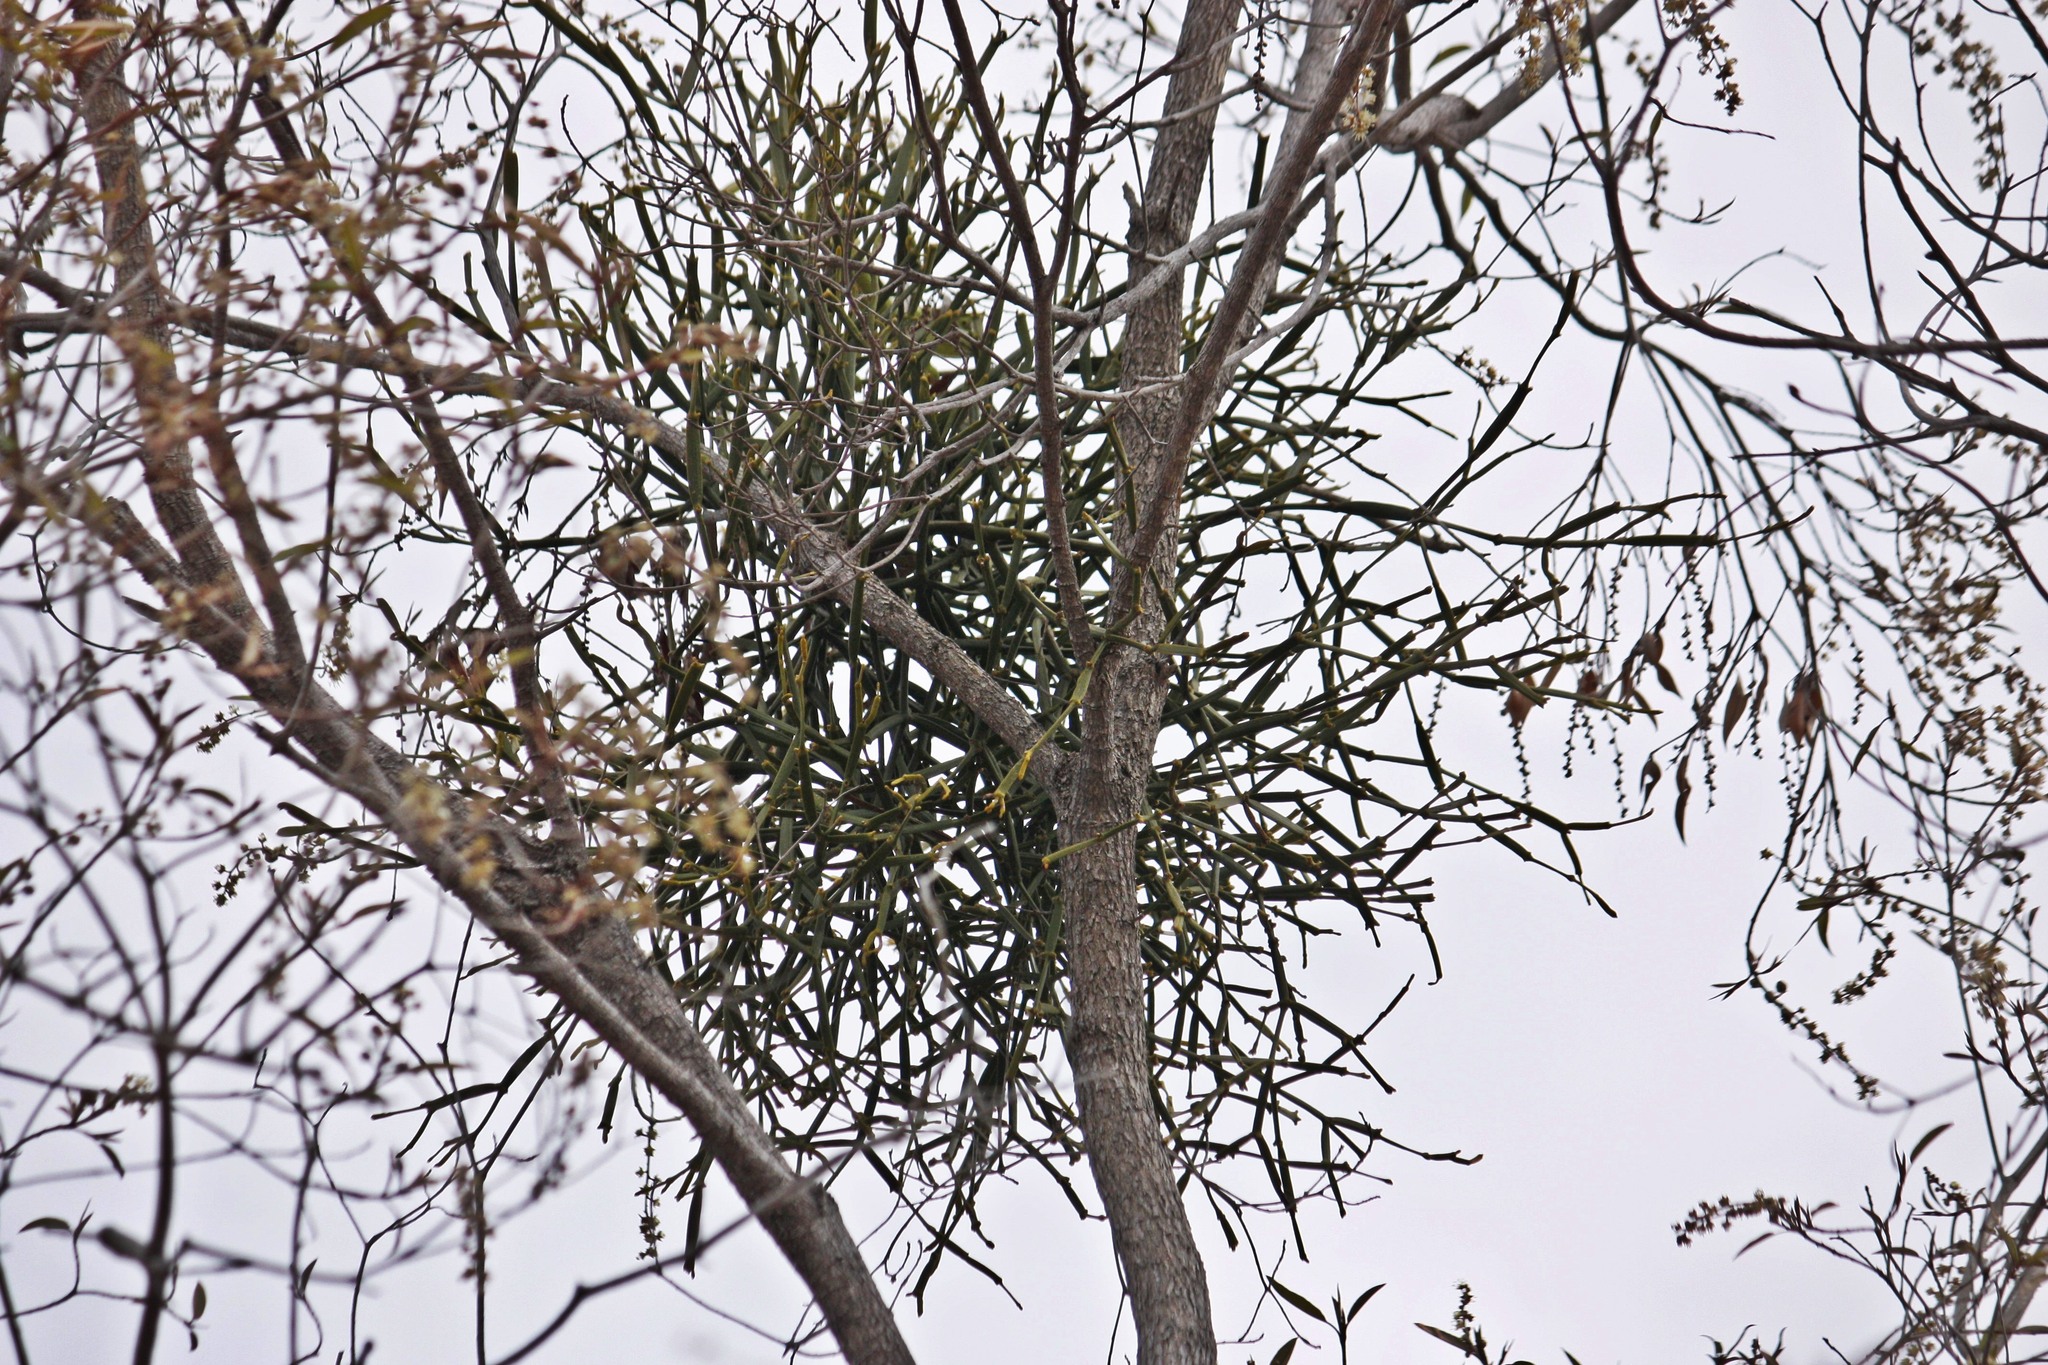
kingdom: Plantae
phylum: Tracheophyta
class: Magnoliopsida
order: Santalales
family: Viscaceae
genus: Viscum
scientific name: Viscum combreticola
